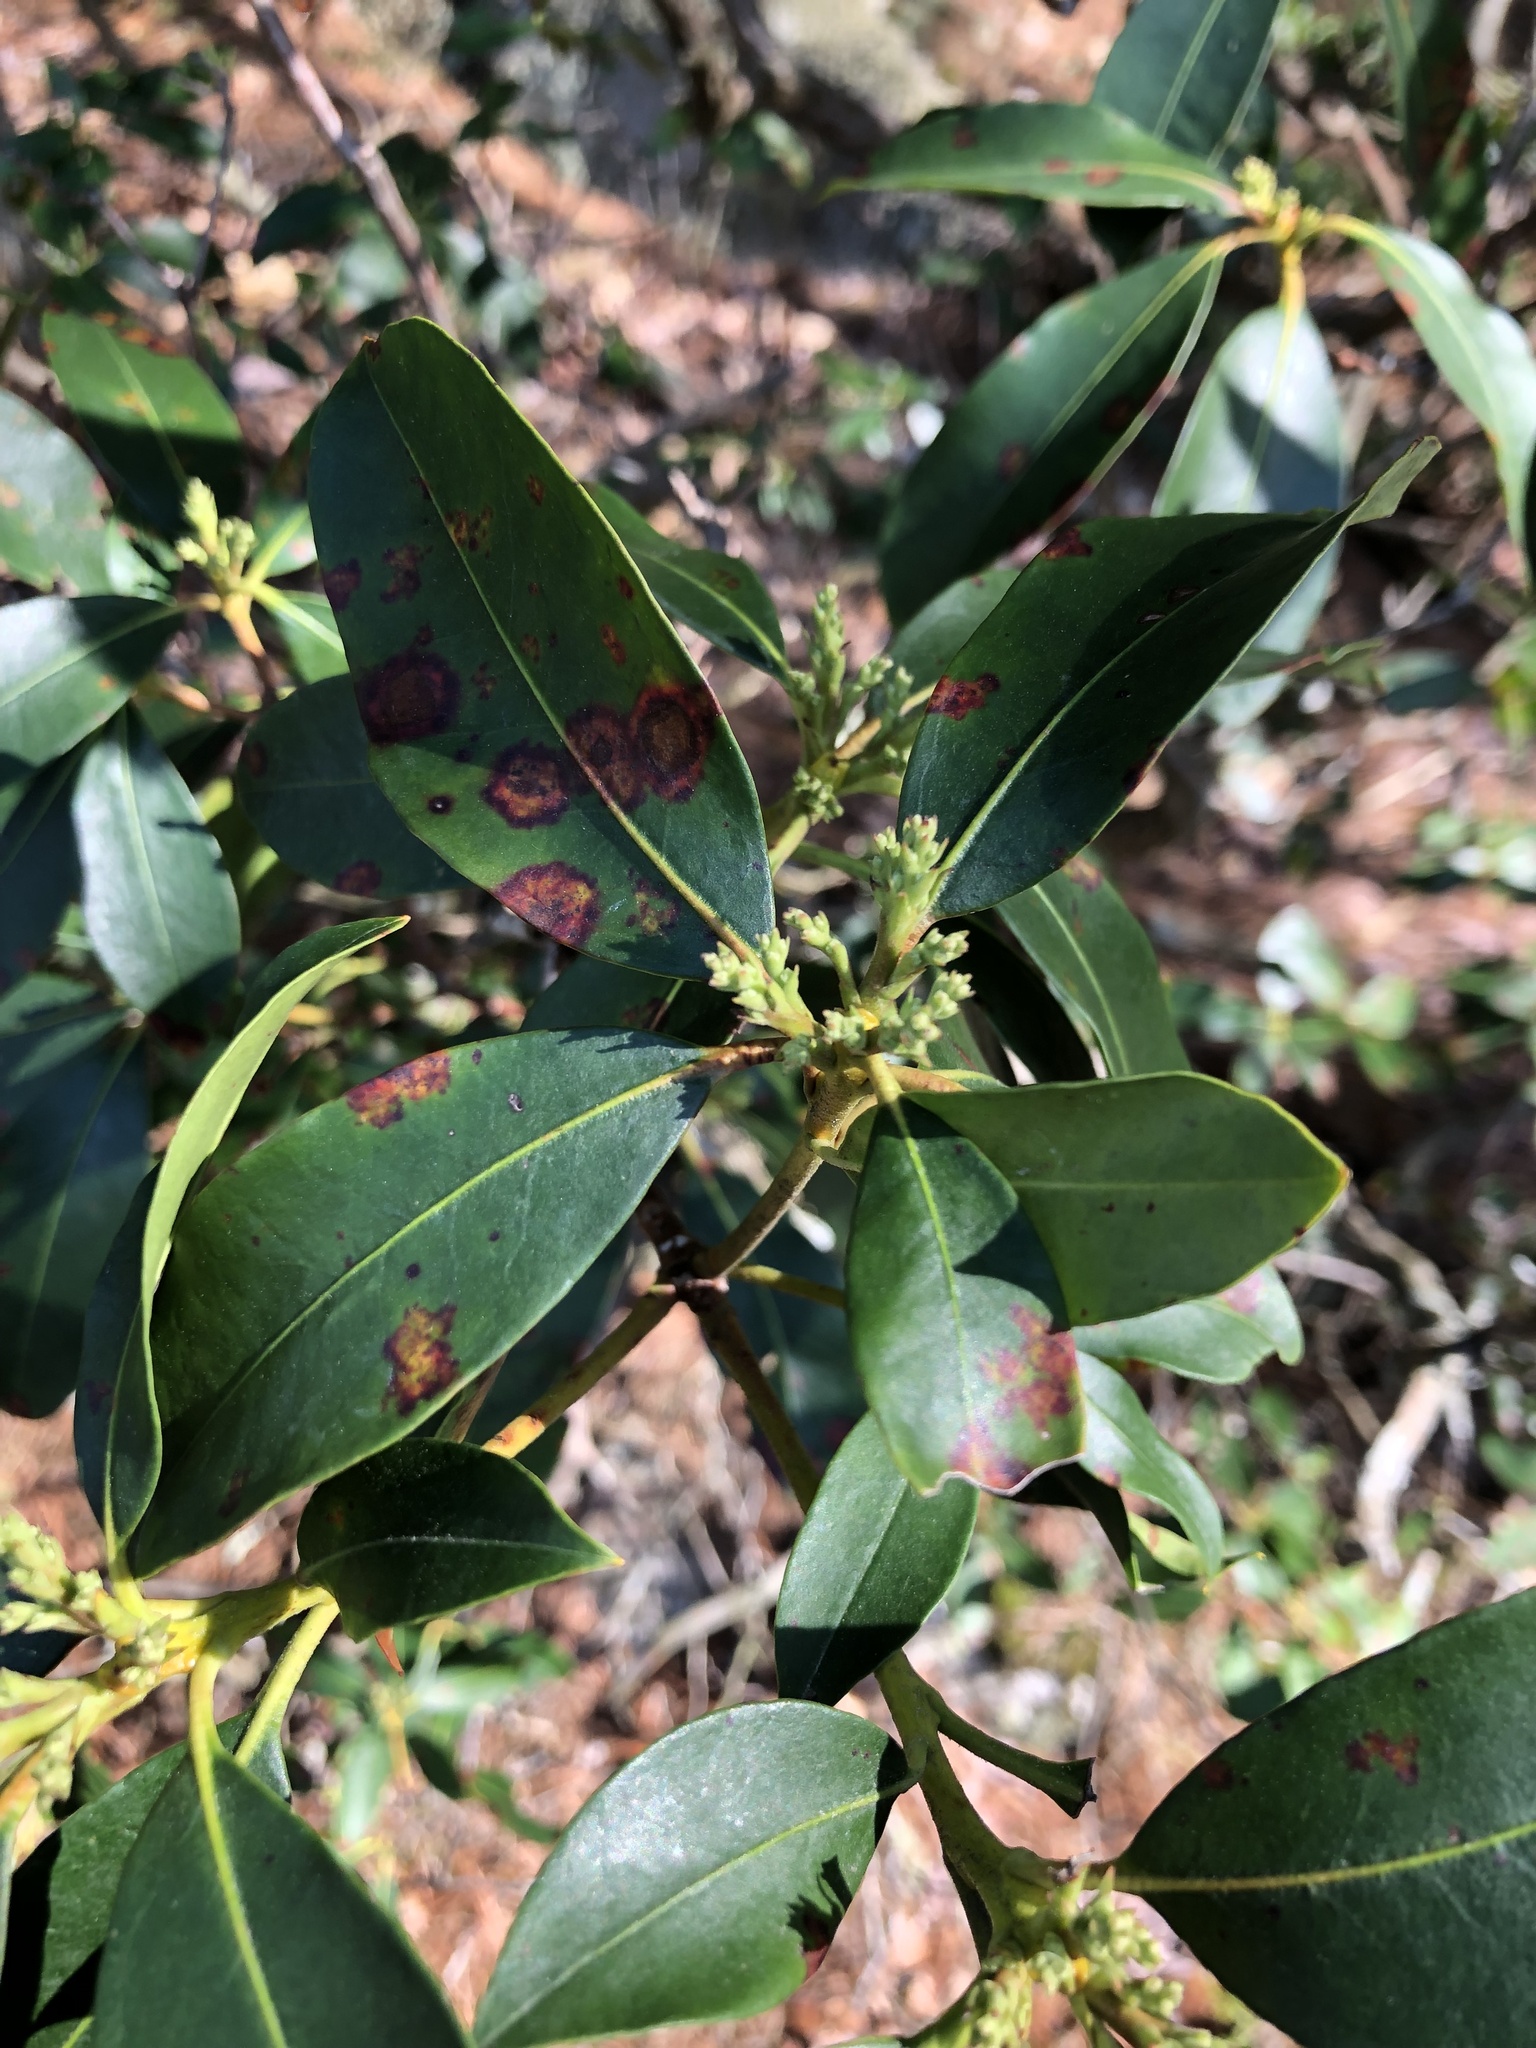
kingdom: Plantae
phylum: Tracheophyta
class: Magnoliopsida
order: Ericales
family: Ericaceae
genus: Kalmia
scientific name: Kalmia latifolia
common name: Mountain-laurel
